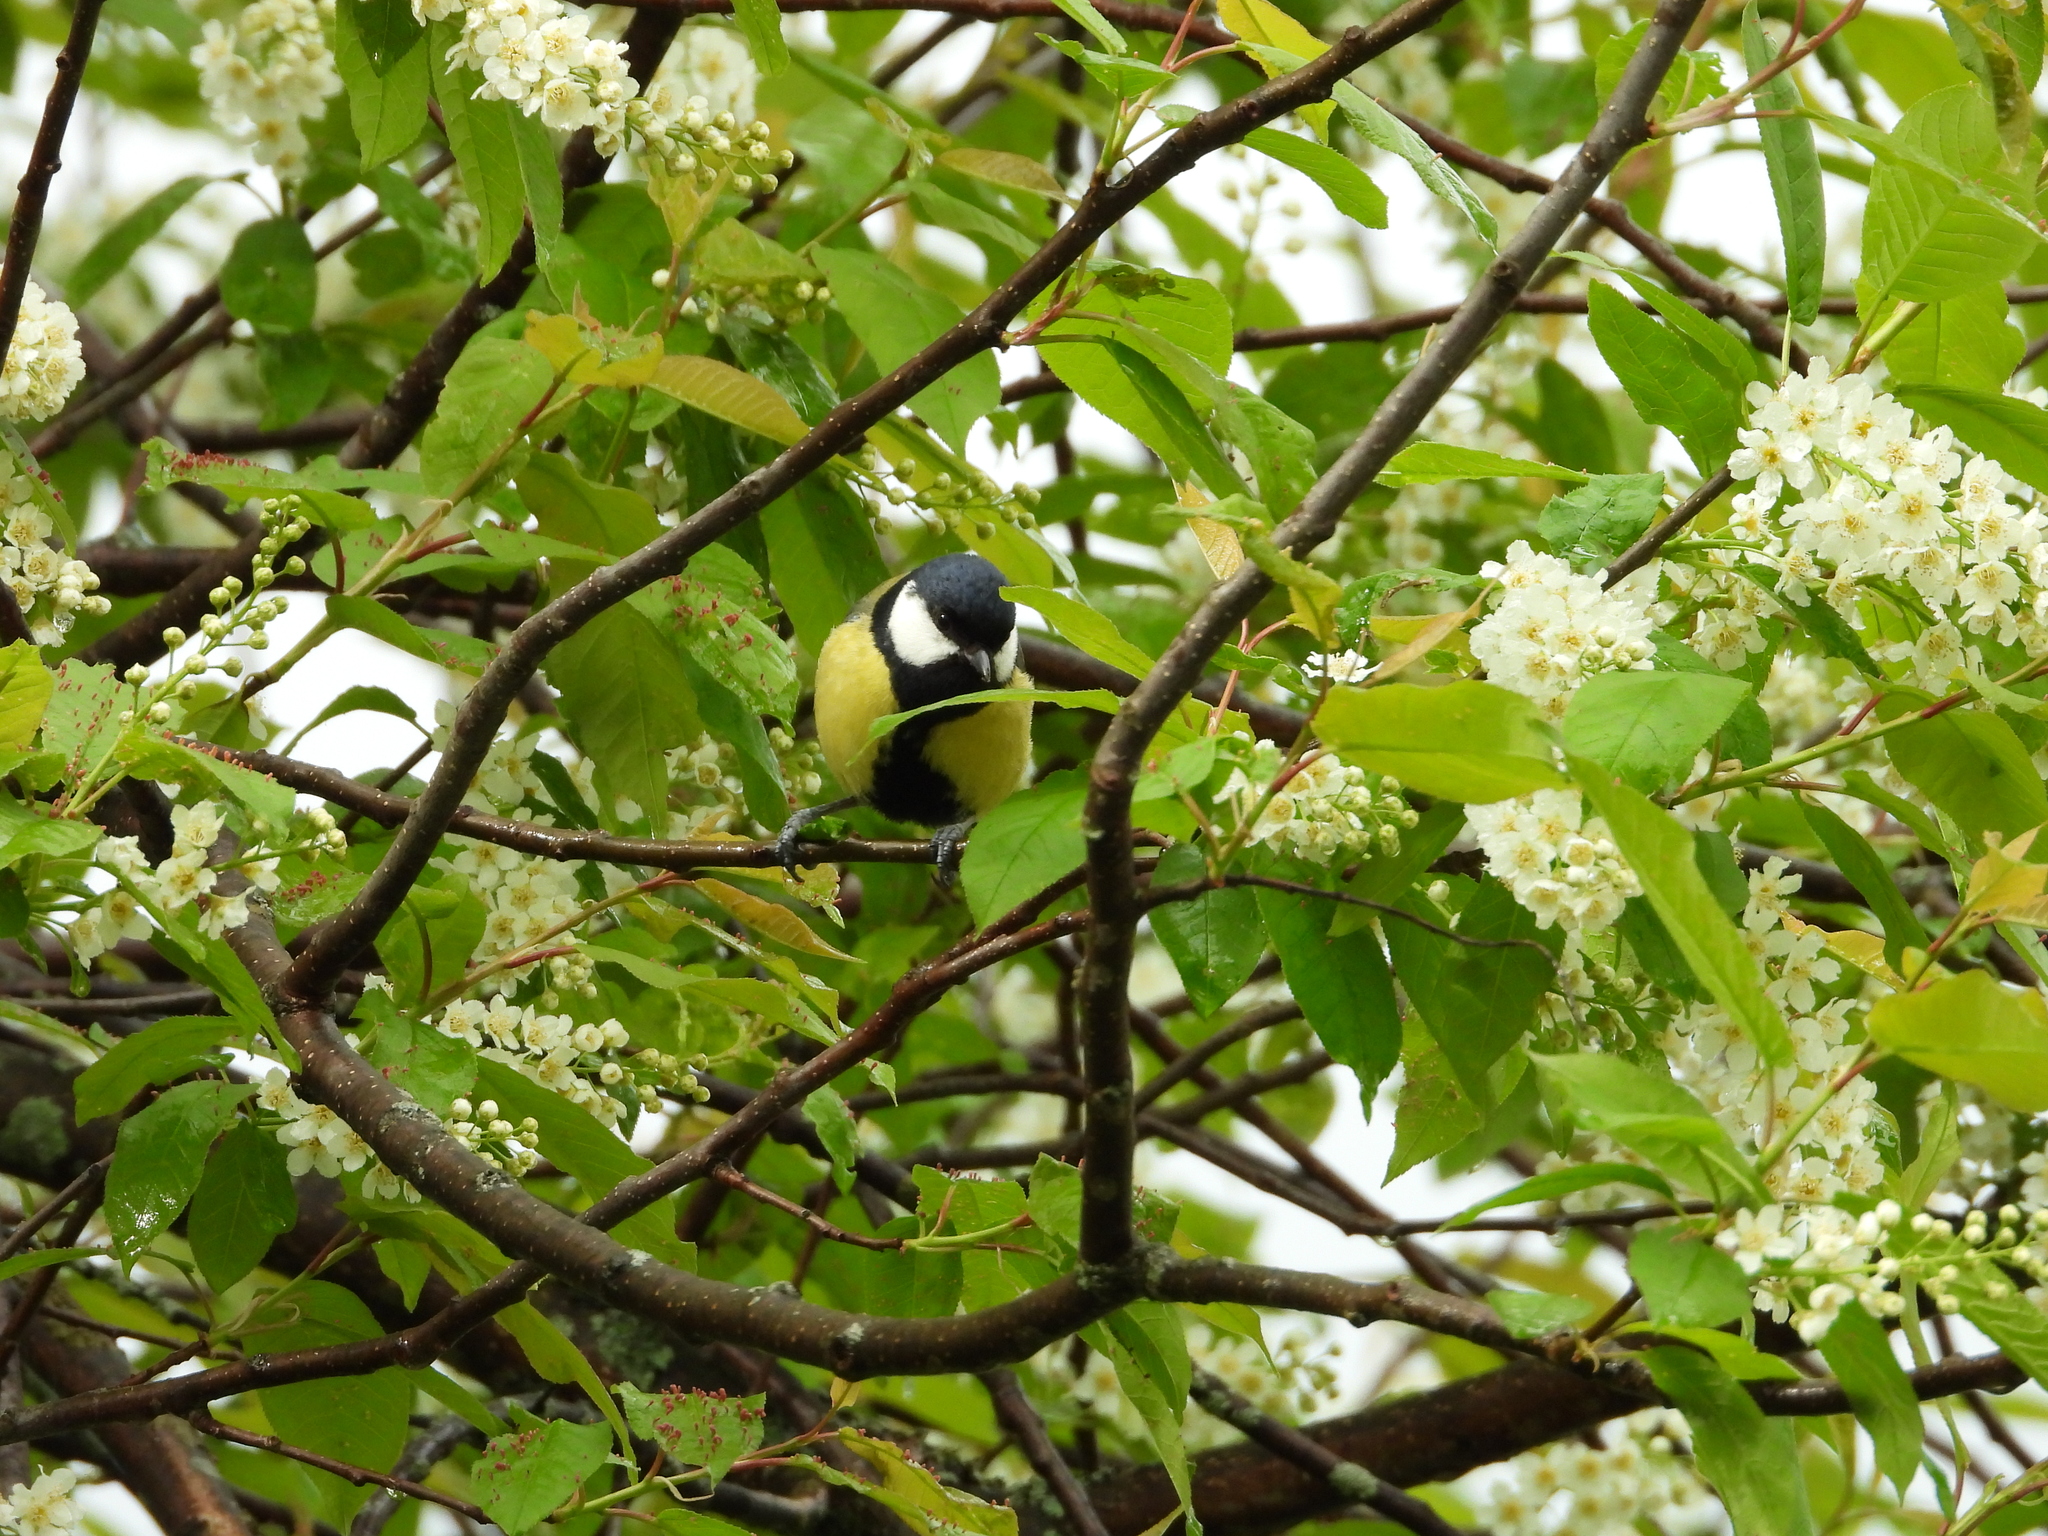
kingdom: Animalia
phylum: Chordata
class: Aves
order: Passeriformes
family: Paridae
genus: Parus
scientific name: Parus major
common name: Great tit
